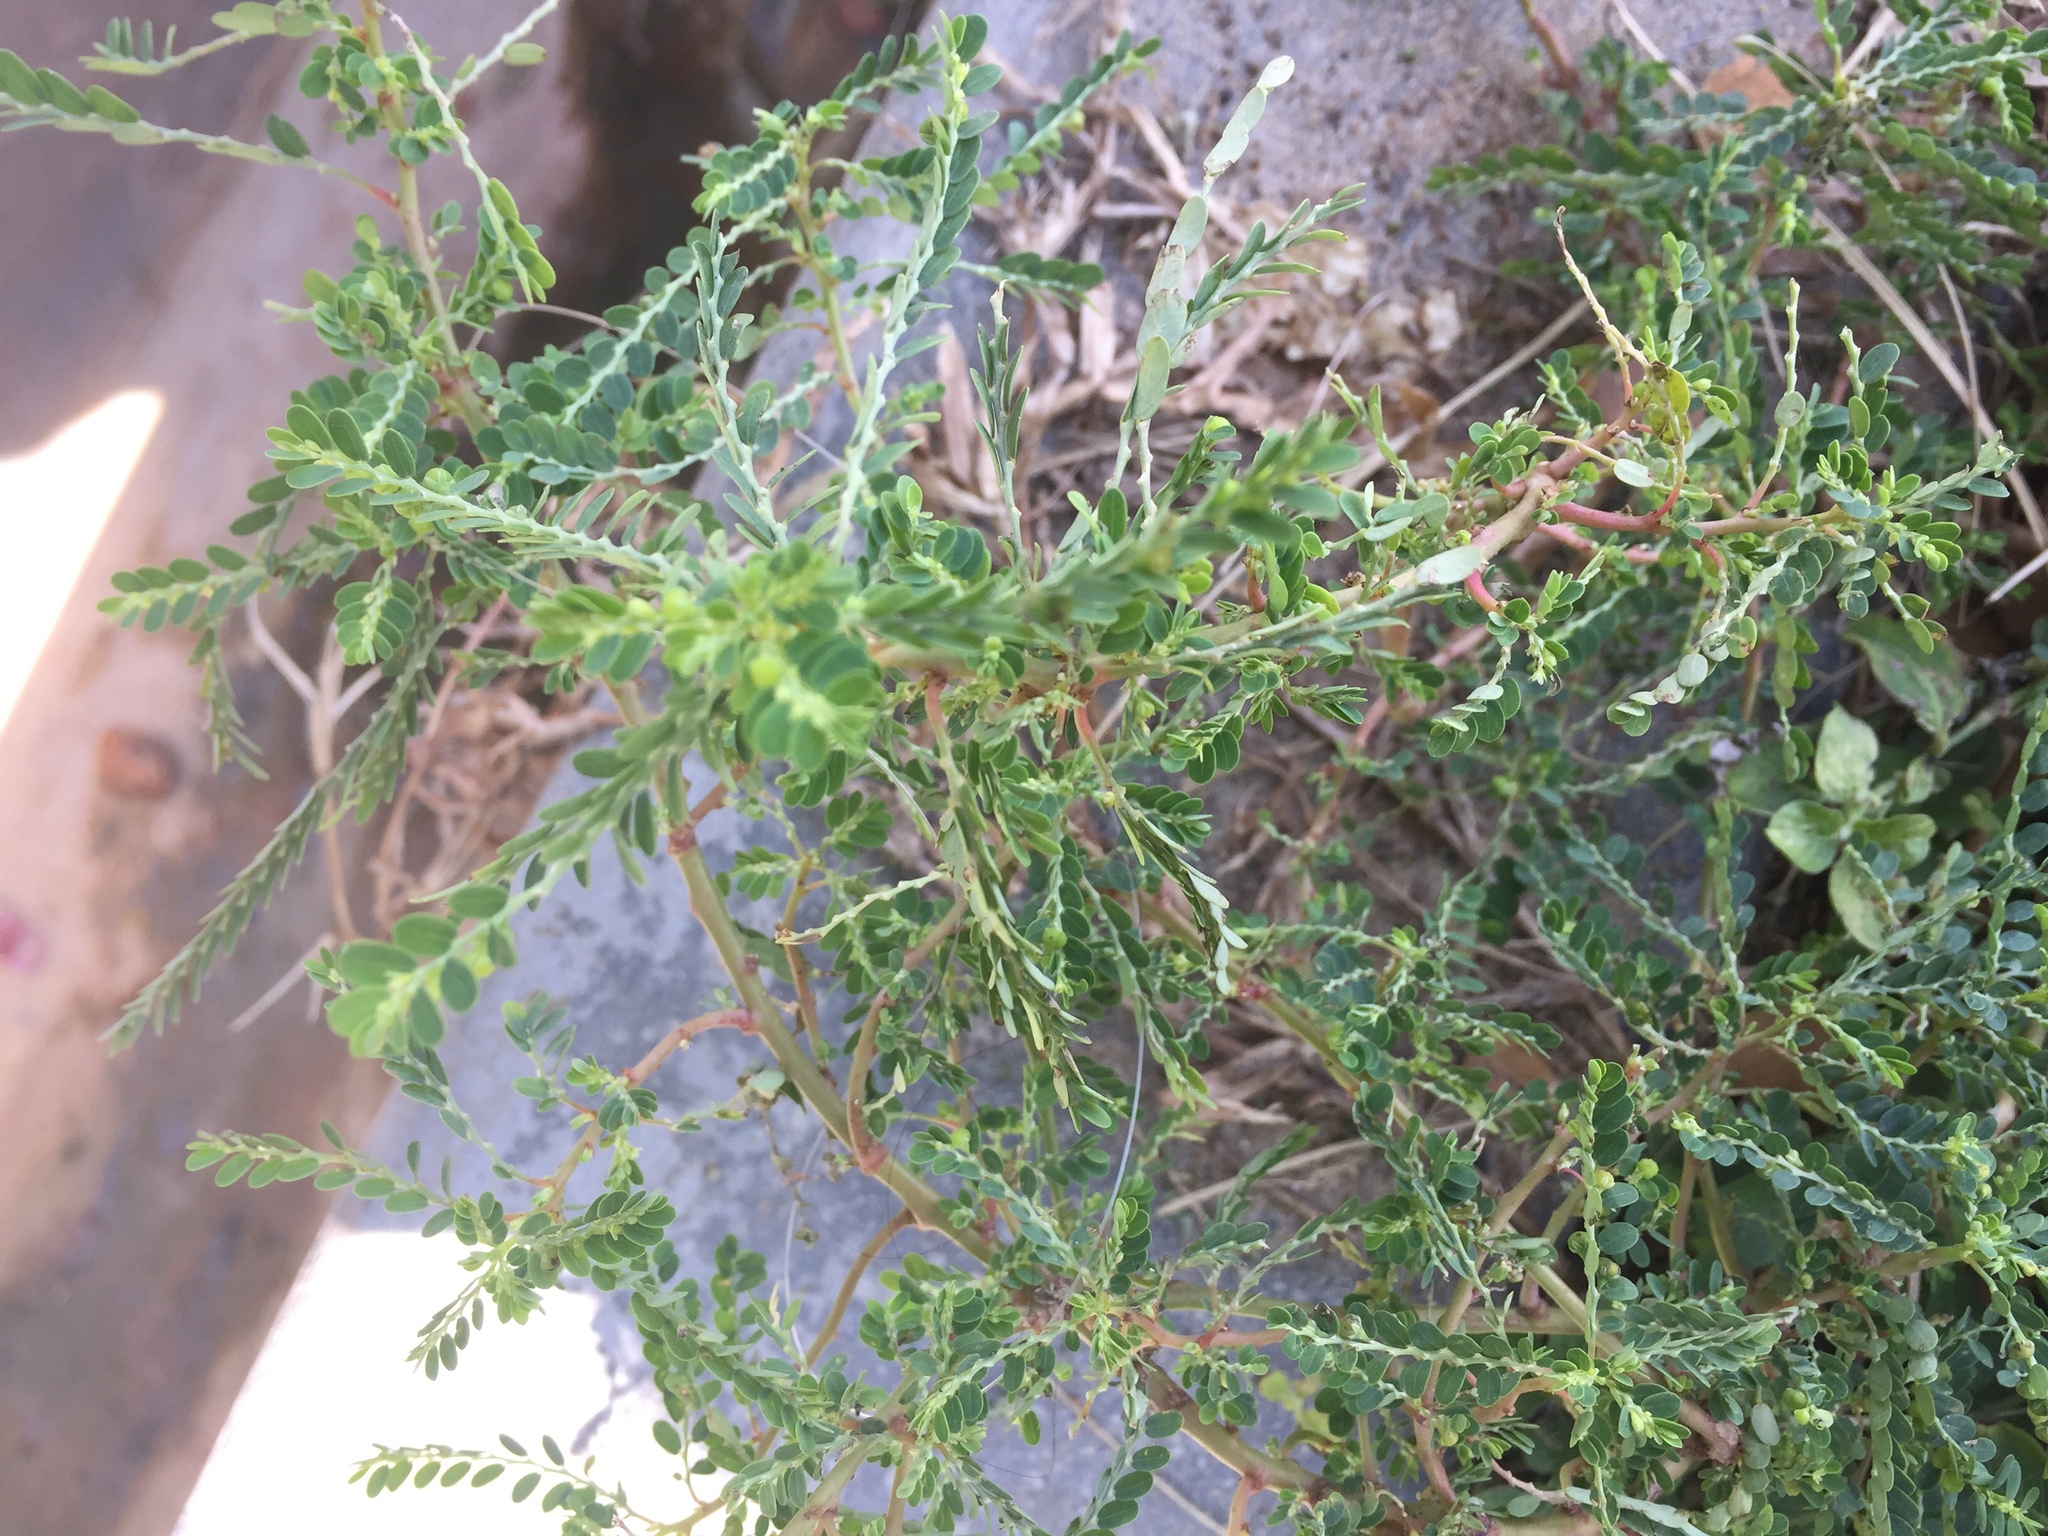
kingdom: Plantae
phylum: Tracheophyta
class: Magnoliopsida
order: Malpighiales
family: Phyllanthaceae
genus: Phyllanthus
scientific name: Phyllanthus urinaria
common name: Chamber bitter
